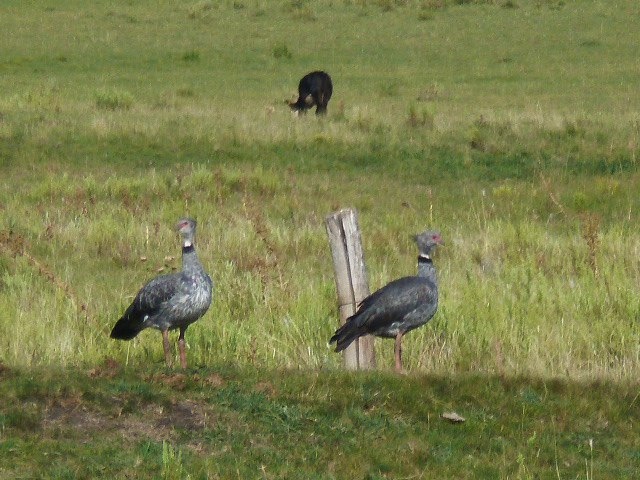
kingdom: Animalia
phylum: Chordata
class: Aves
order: Anseriformes
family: Anhimidae
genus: Chauna
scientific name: Chauna torquata
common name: Southern screamer
